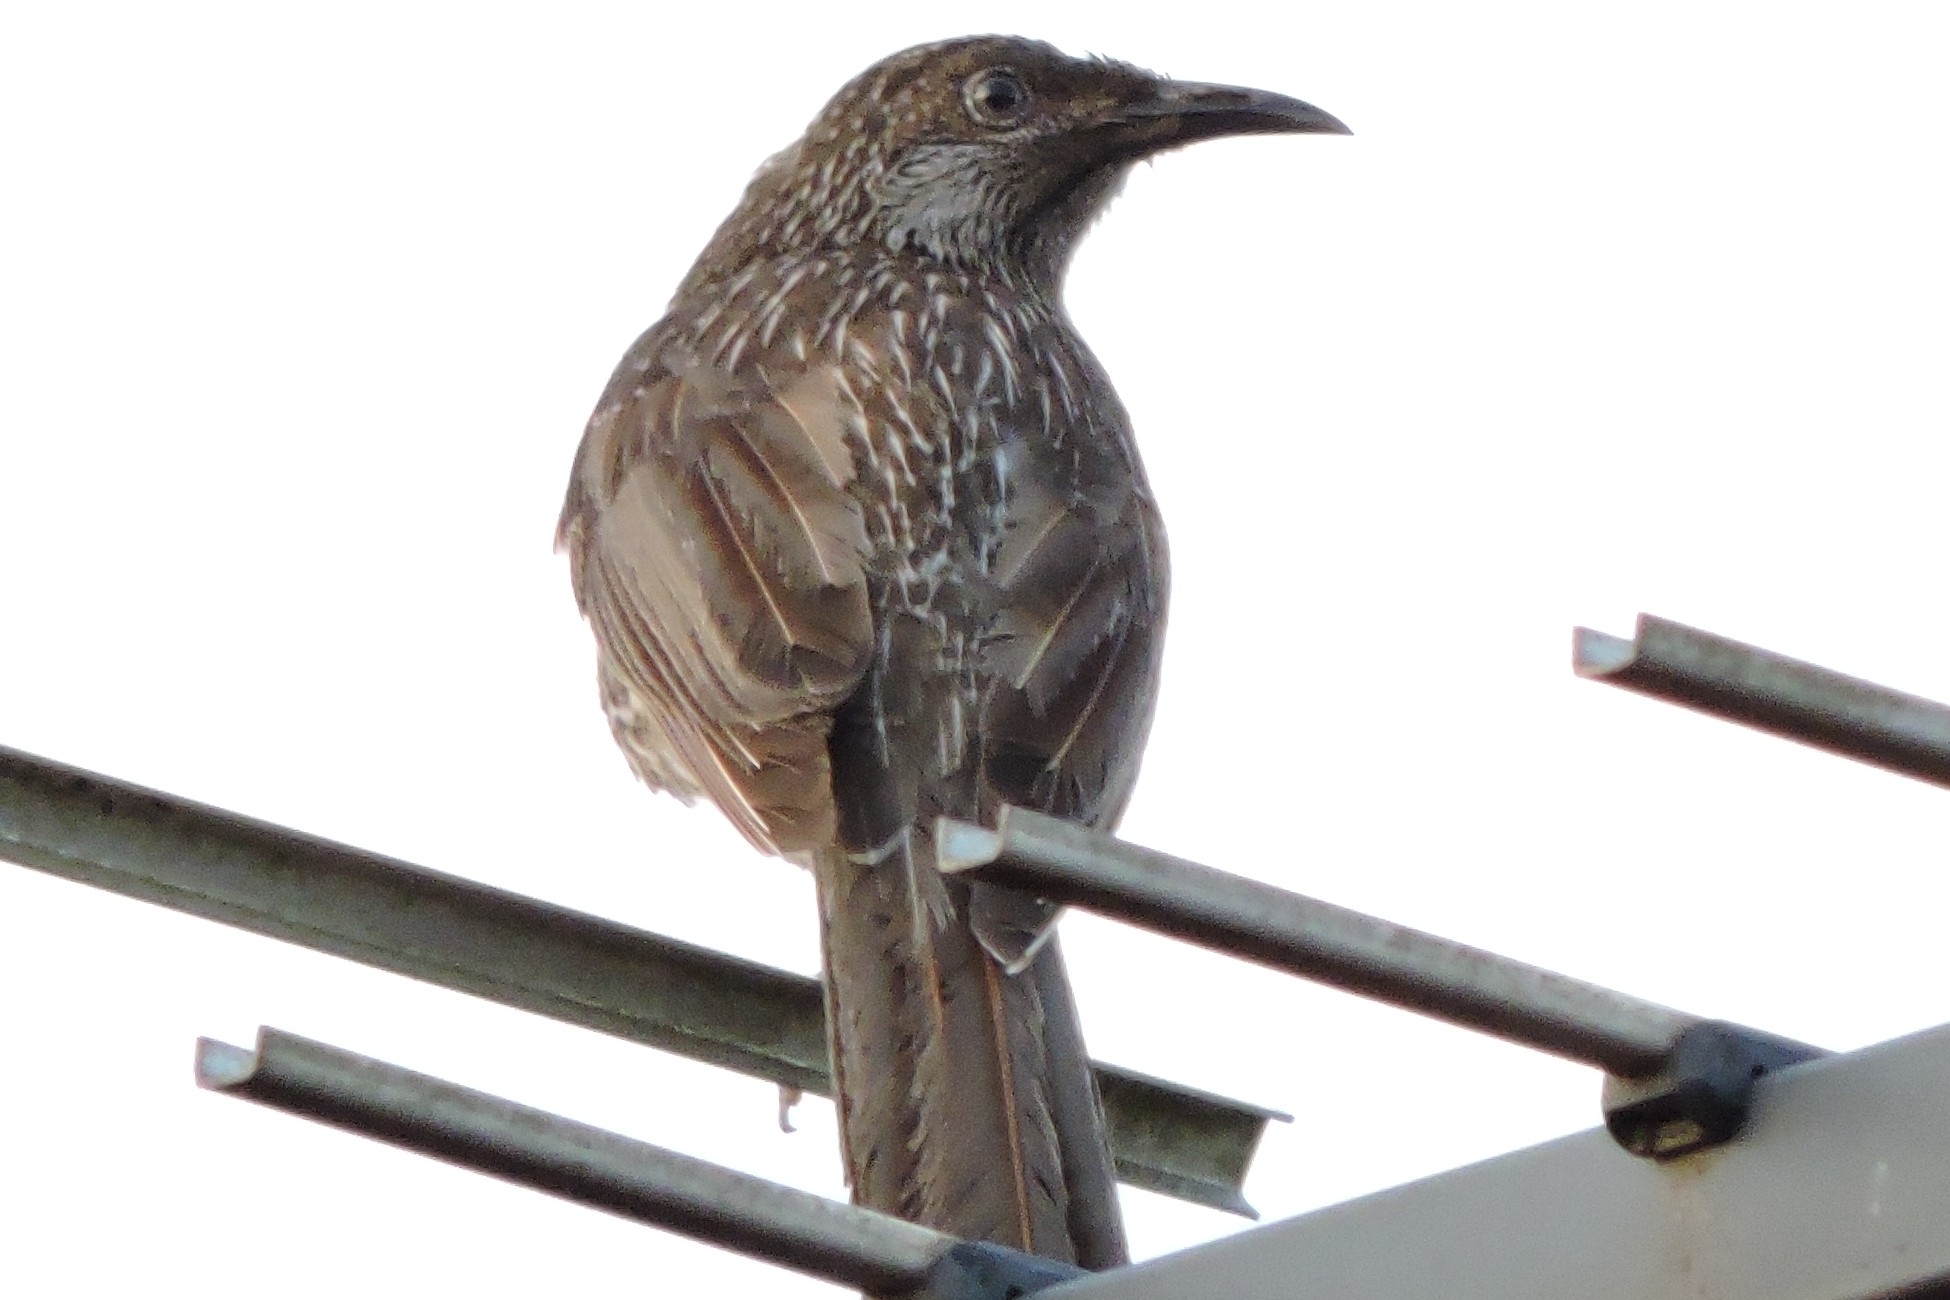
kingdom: Animalia
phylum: Chordata
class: Aves
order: Passeriformes
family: Meliphagidae
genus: Anthochaera
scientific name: Anthochaera chrysoptera
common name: Little wattlebird
